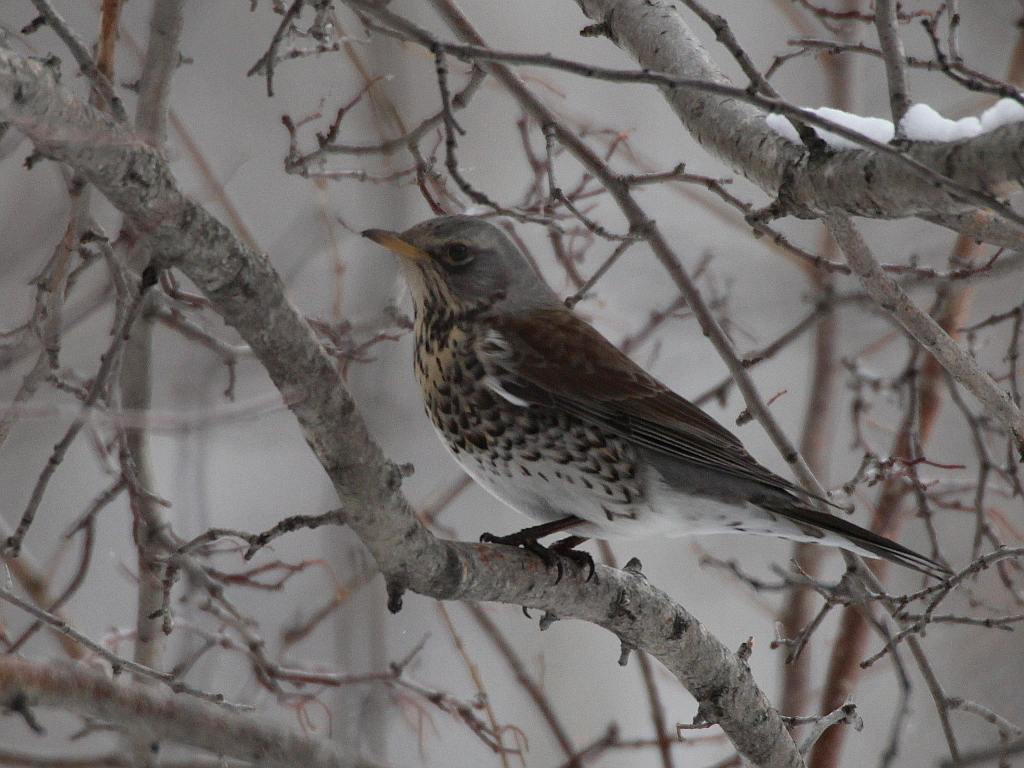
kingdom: Animalia
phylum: Chordata
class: Aves
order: Passeriformes
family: Turdidae
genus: Turdus
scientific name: Turdus pilaris
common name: Fieldfare
